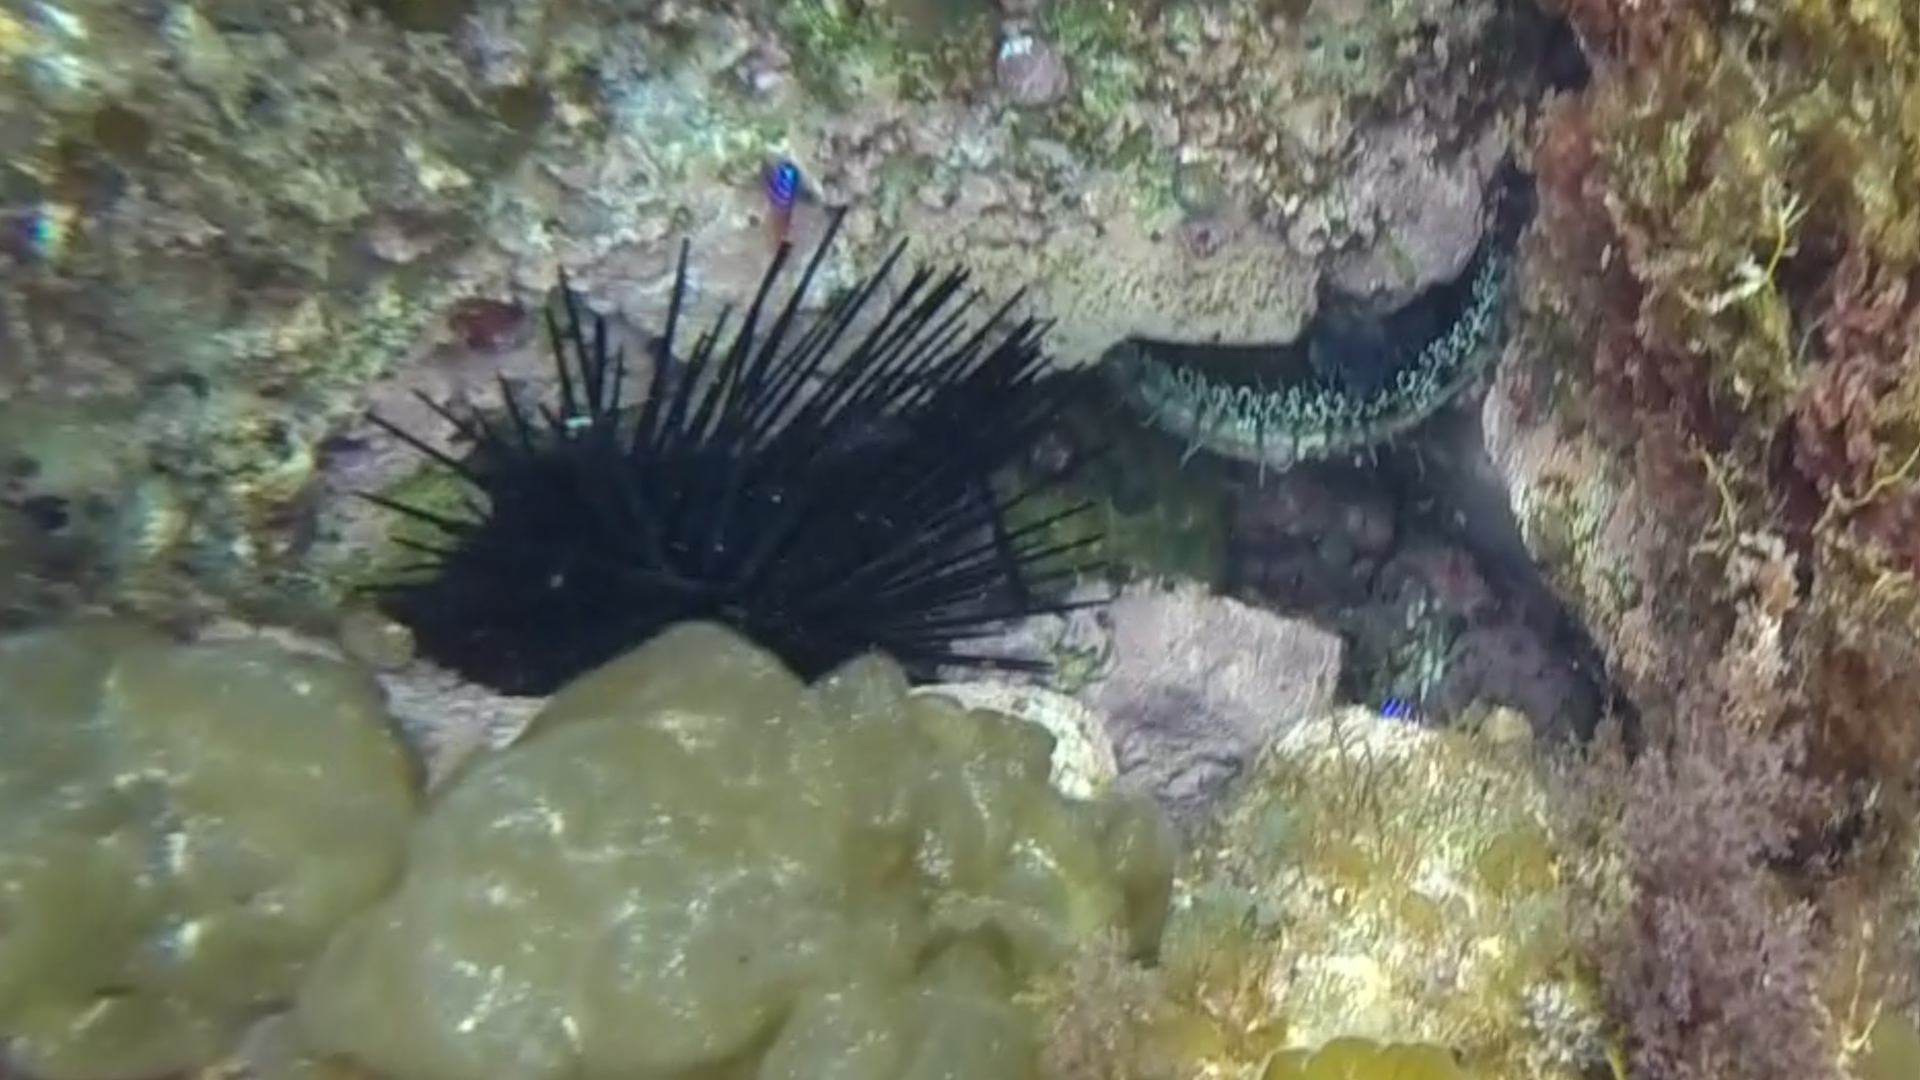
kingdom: Animalia
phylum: Echinodermata
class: Echinoidea
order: Diadematoida
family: Diadematidae
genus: Centrostephanus
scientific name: Centrostephanus coronatus
